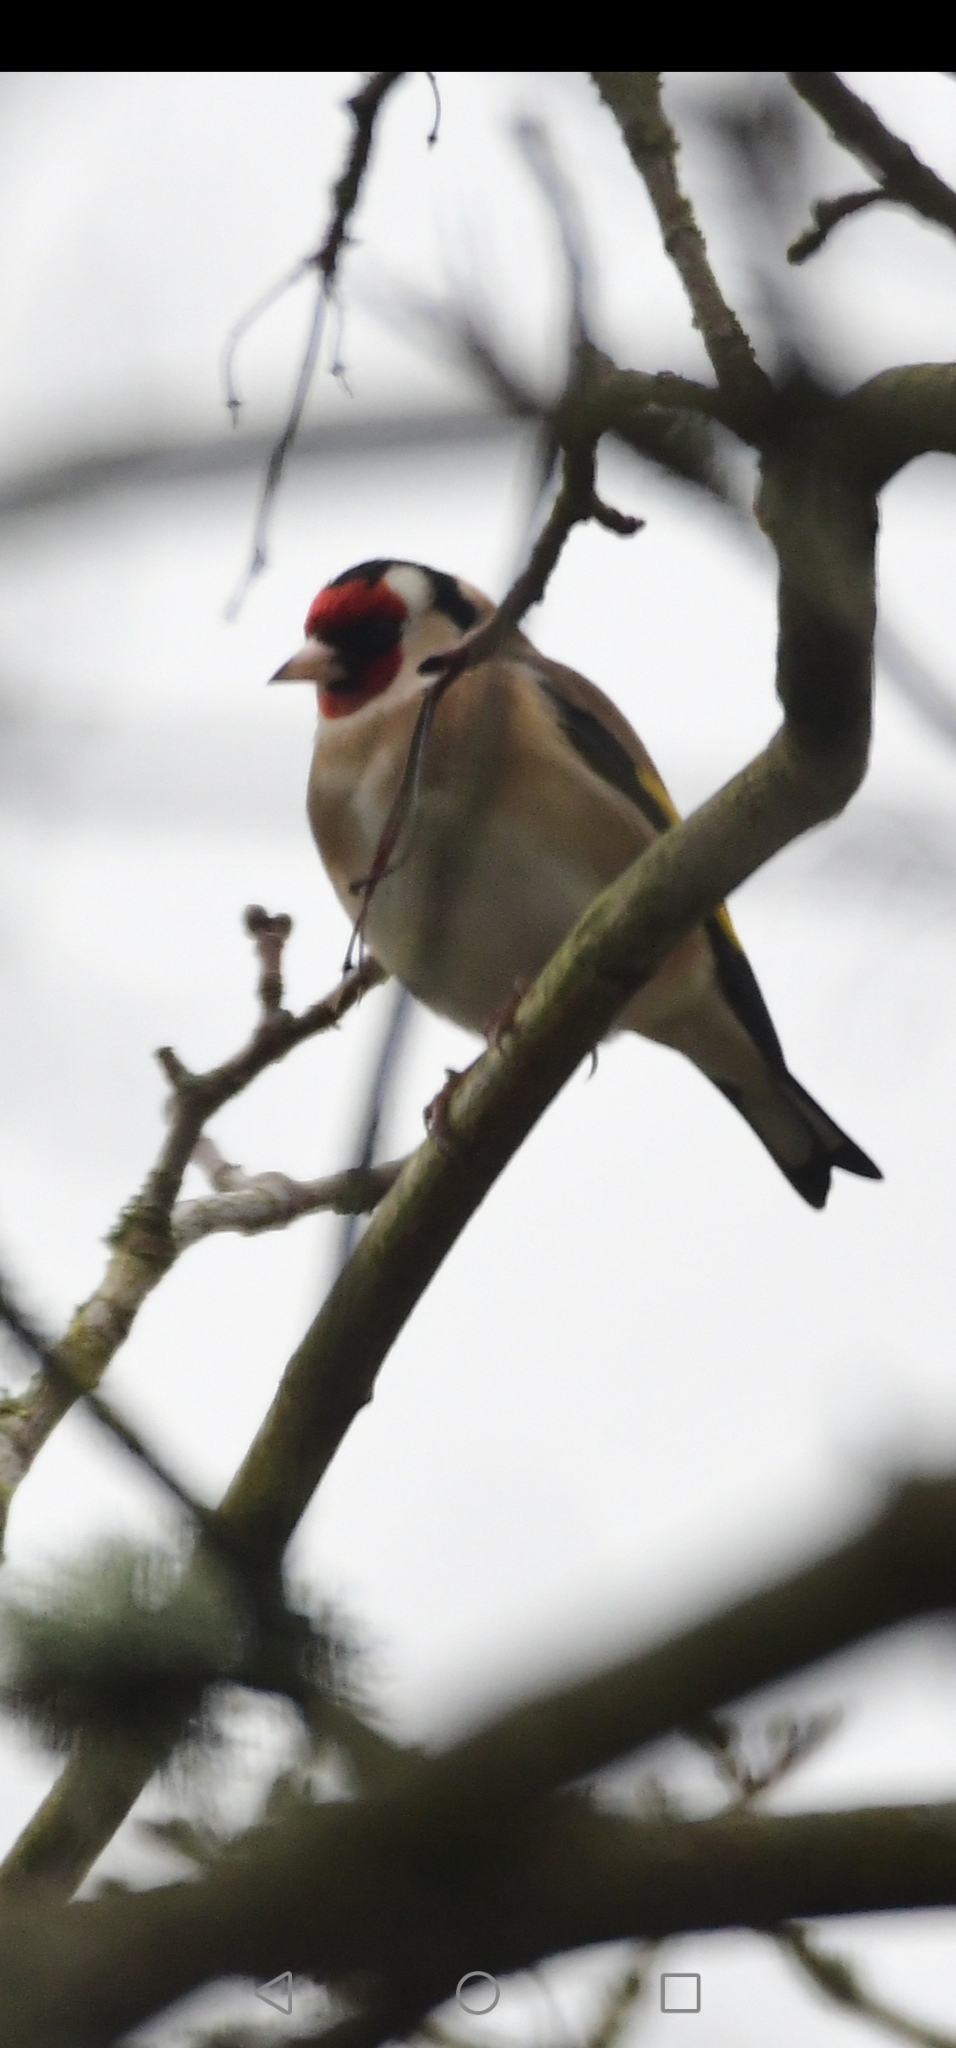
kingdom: Animalia
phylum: Chordata
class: Aves
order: Passeriformes
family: Fringillidae
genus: Carduelis
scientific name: Carduelis carduelis
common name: European goldfinch
